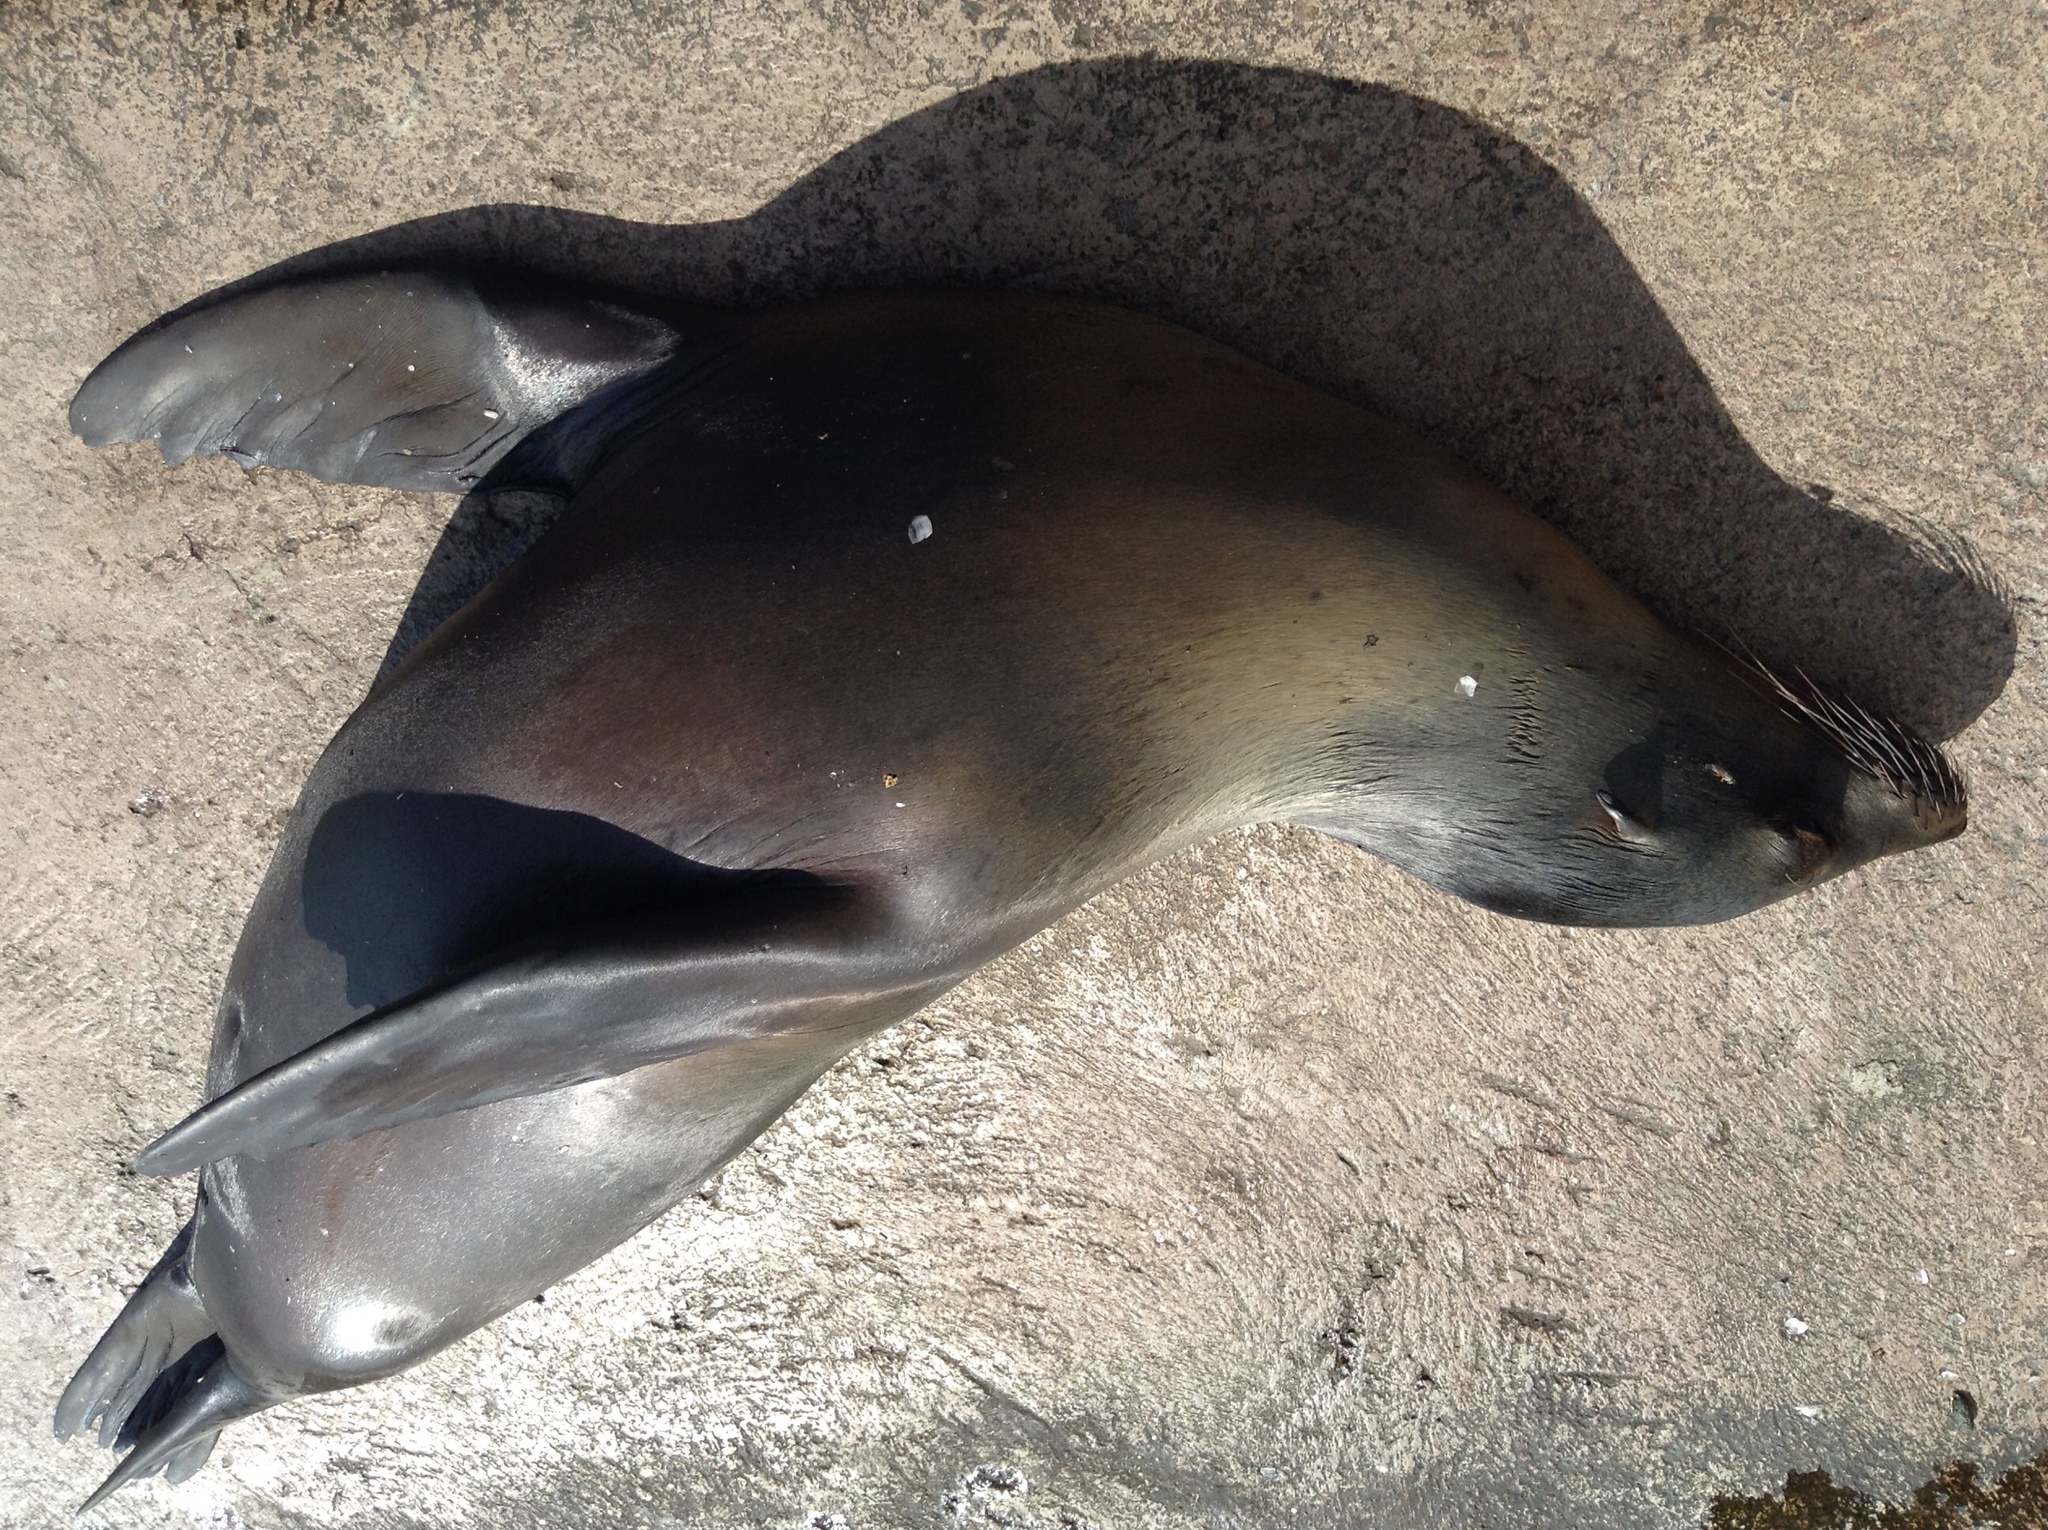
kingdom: Animalia
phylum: Chordata
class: Mammalia
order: Carnivora
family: Otariidae
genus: Zalophus
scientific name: Zalophus wollebaeki
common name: Galapagos sea lion
